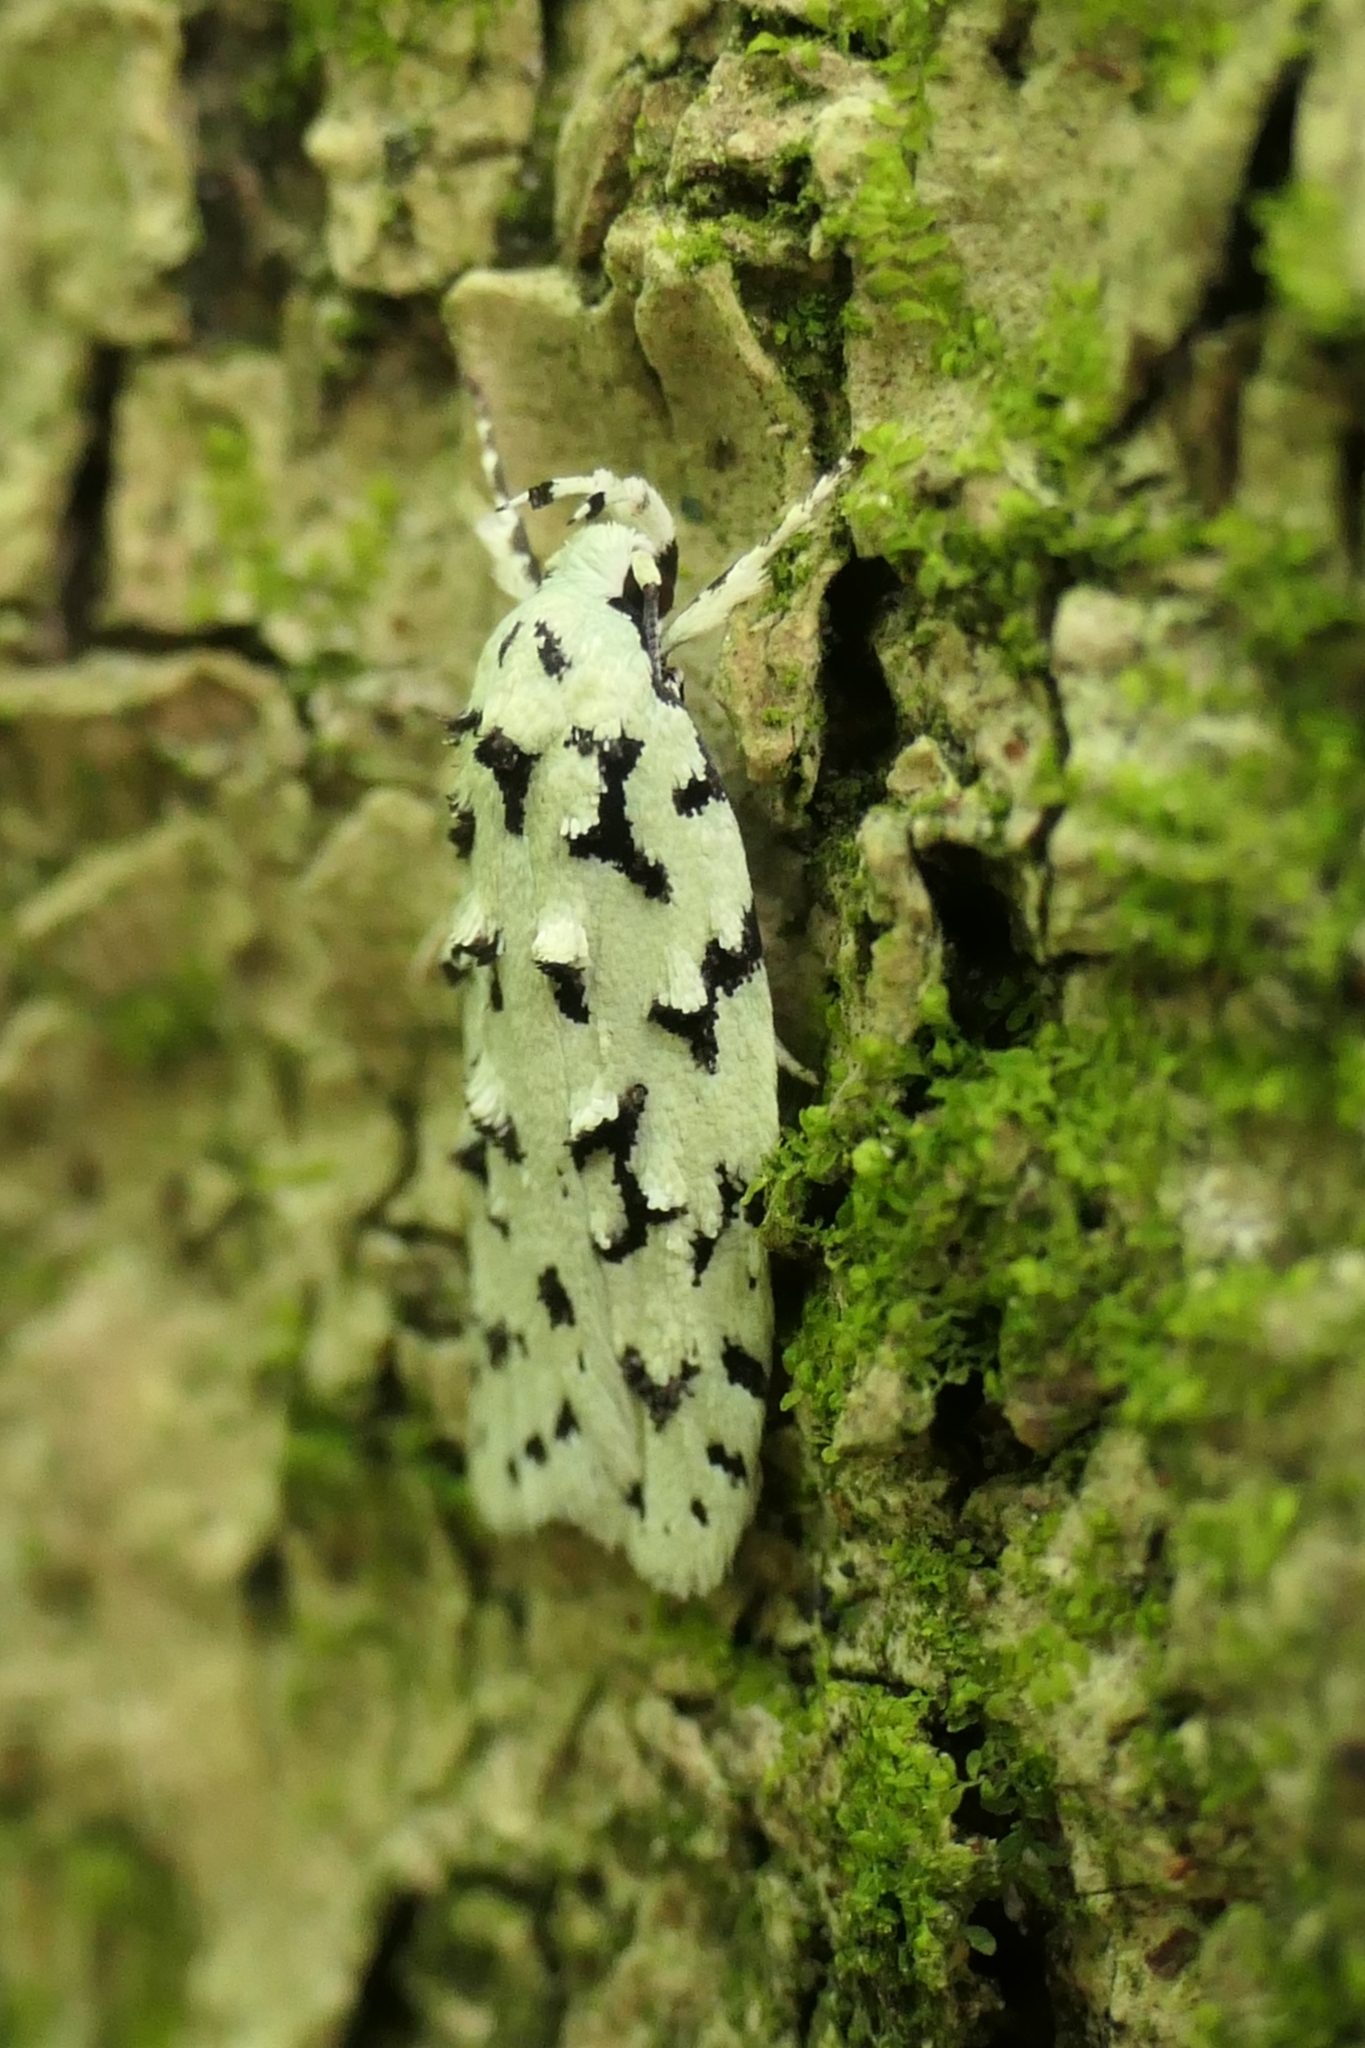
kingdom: Animalia
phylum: Arthropoda
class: Insecta
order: Lepidoptera
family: Oecophoridae
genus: Izatha
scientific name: Izatha huttoni
